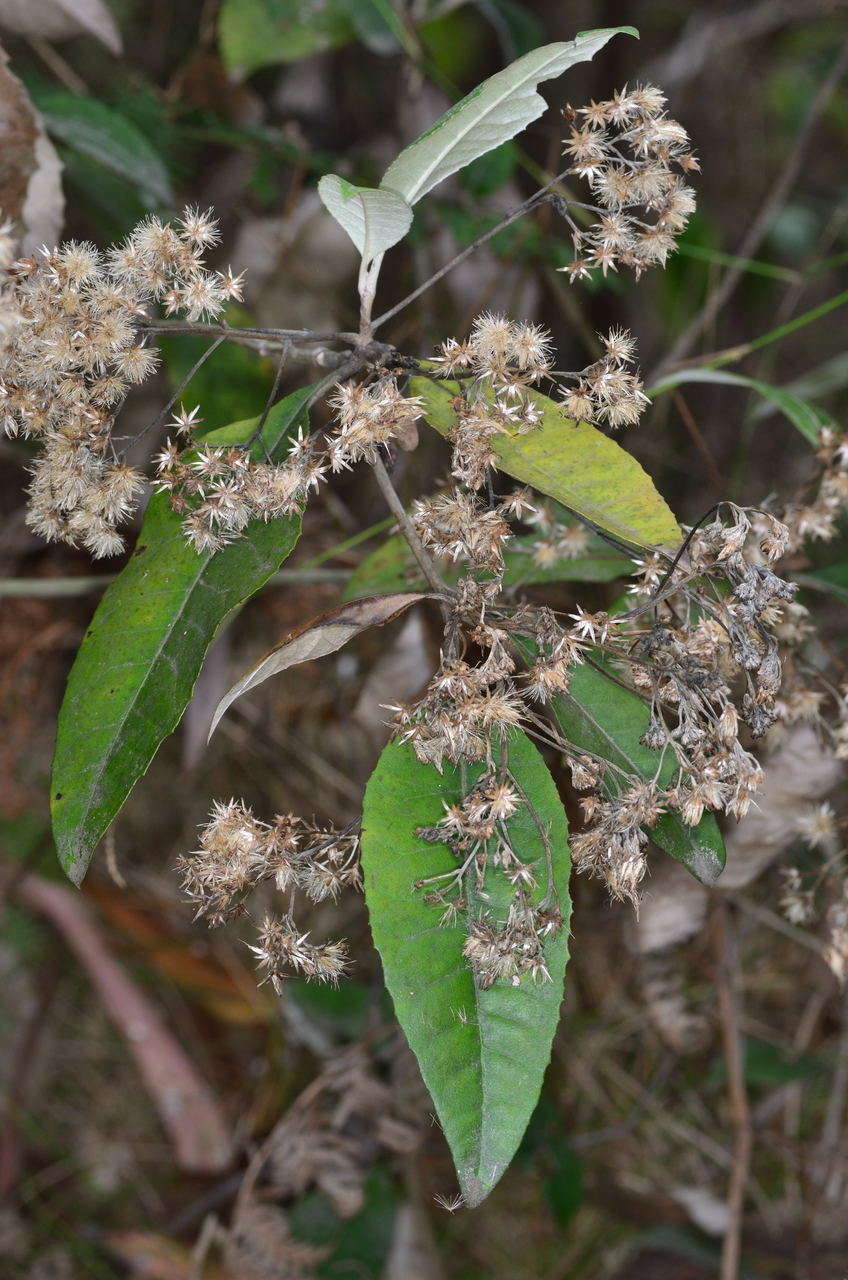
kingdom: Plantae
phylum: Tracheophyta
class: Magnoliopsida
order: Asterales
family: Asteraceae
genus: Olearia
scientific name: Olearia argophylla
